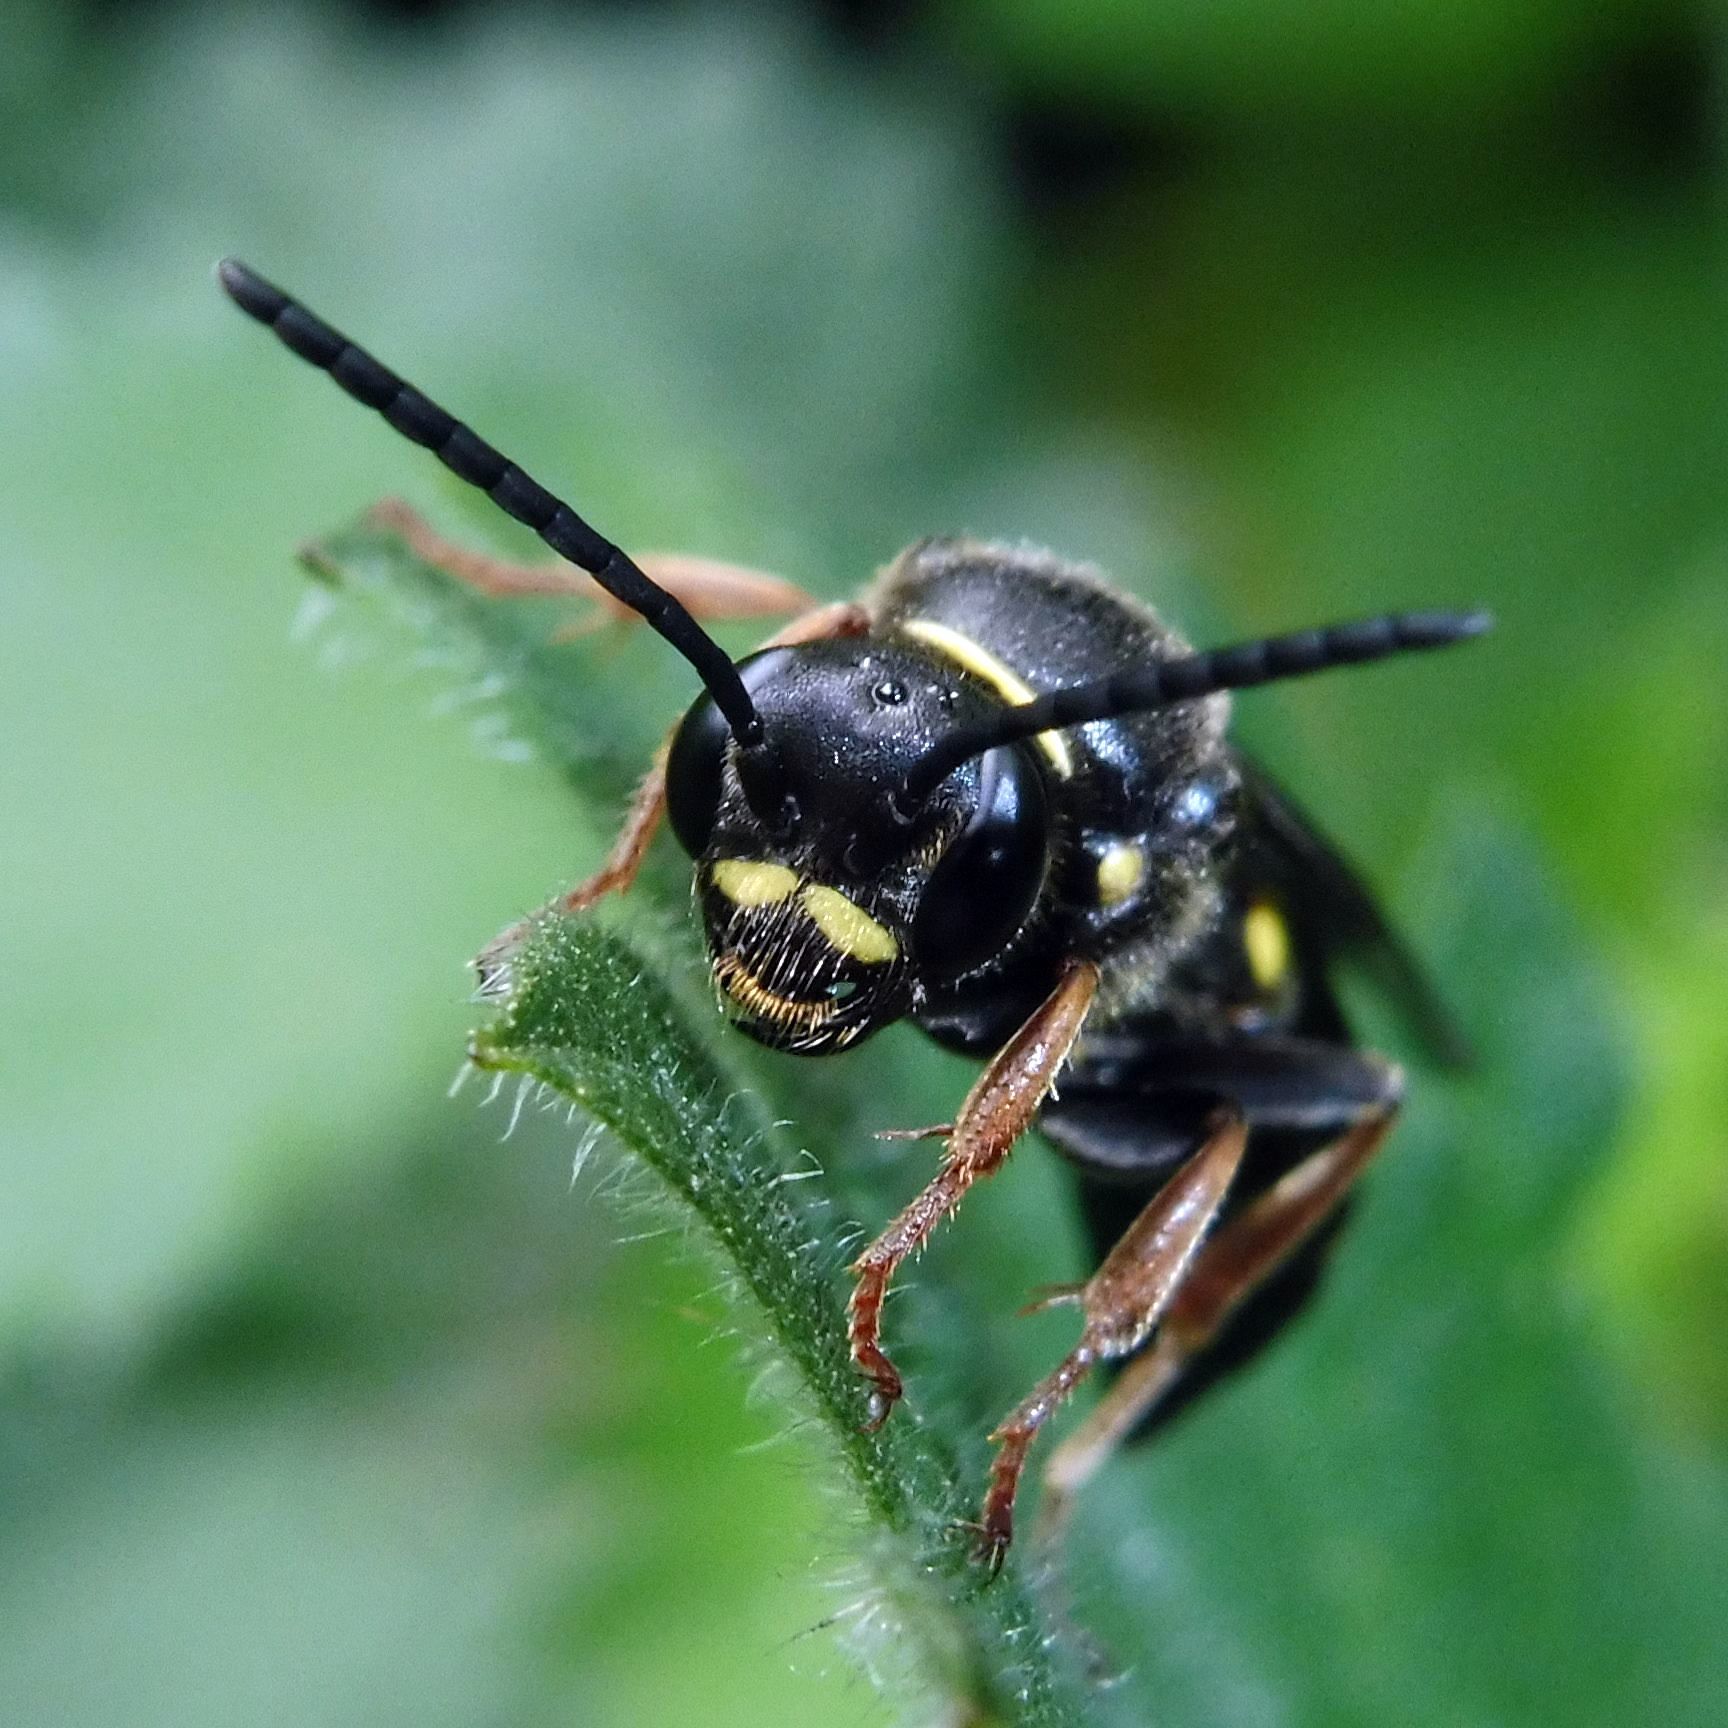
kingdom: Animalia
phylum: Arthropoda
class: Insecta
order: Hymenoptera
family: Crabronidae
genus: Argogorytes
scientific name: Argogorytes mystaceus
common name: Field digger wasp
